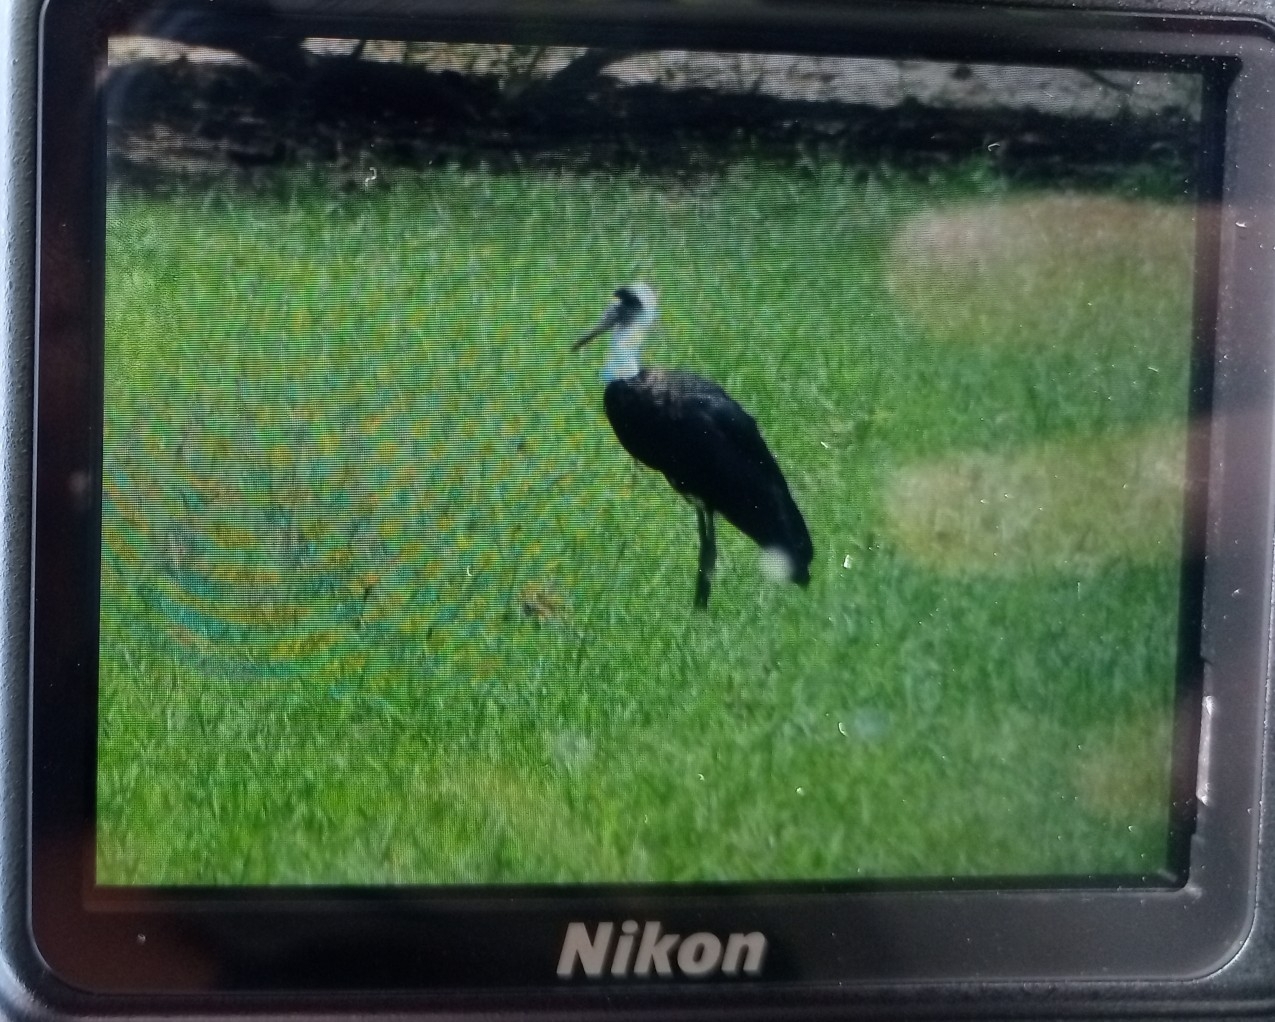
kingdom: Animalia
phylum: Chordata
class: Aves
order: Ciconiiformes
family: Ciconiidae
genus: Ciconia
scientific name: Ciconia microscelis
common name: African woollyneck
